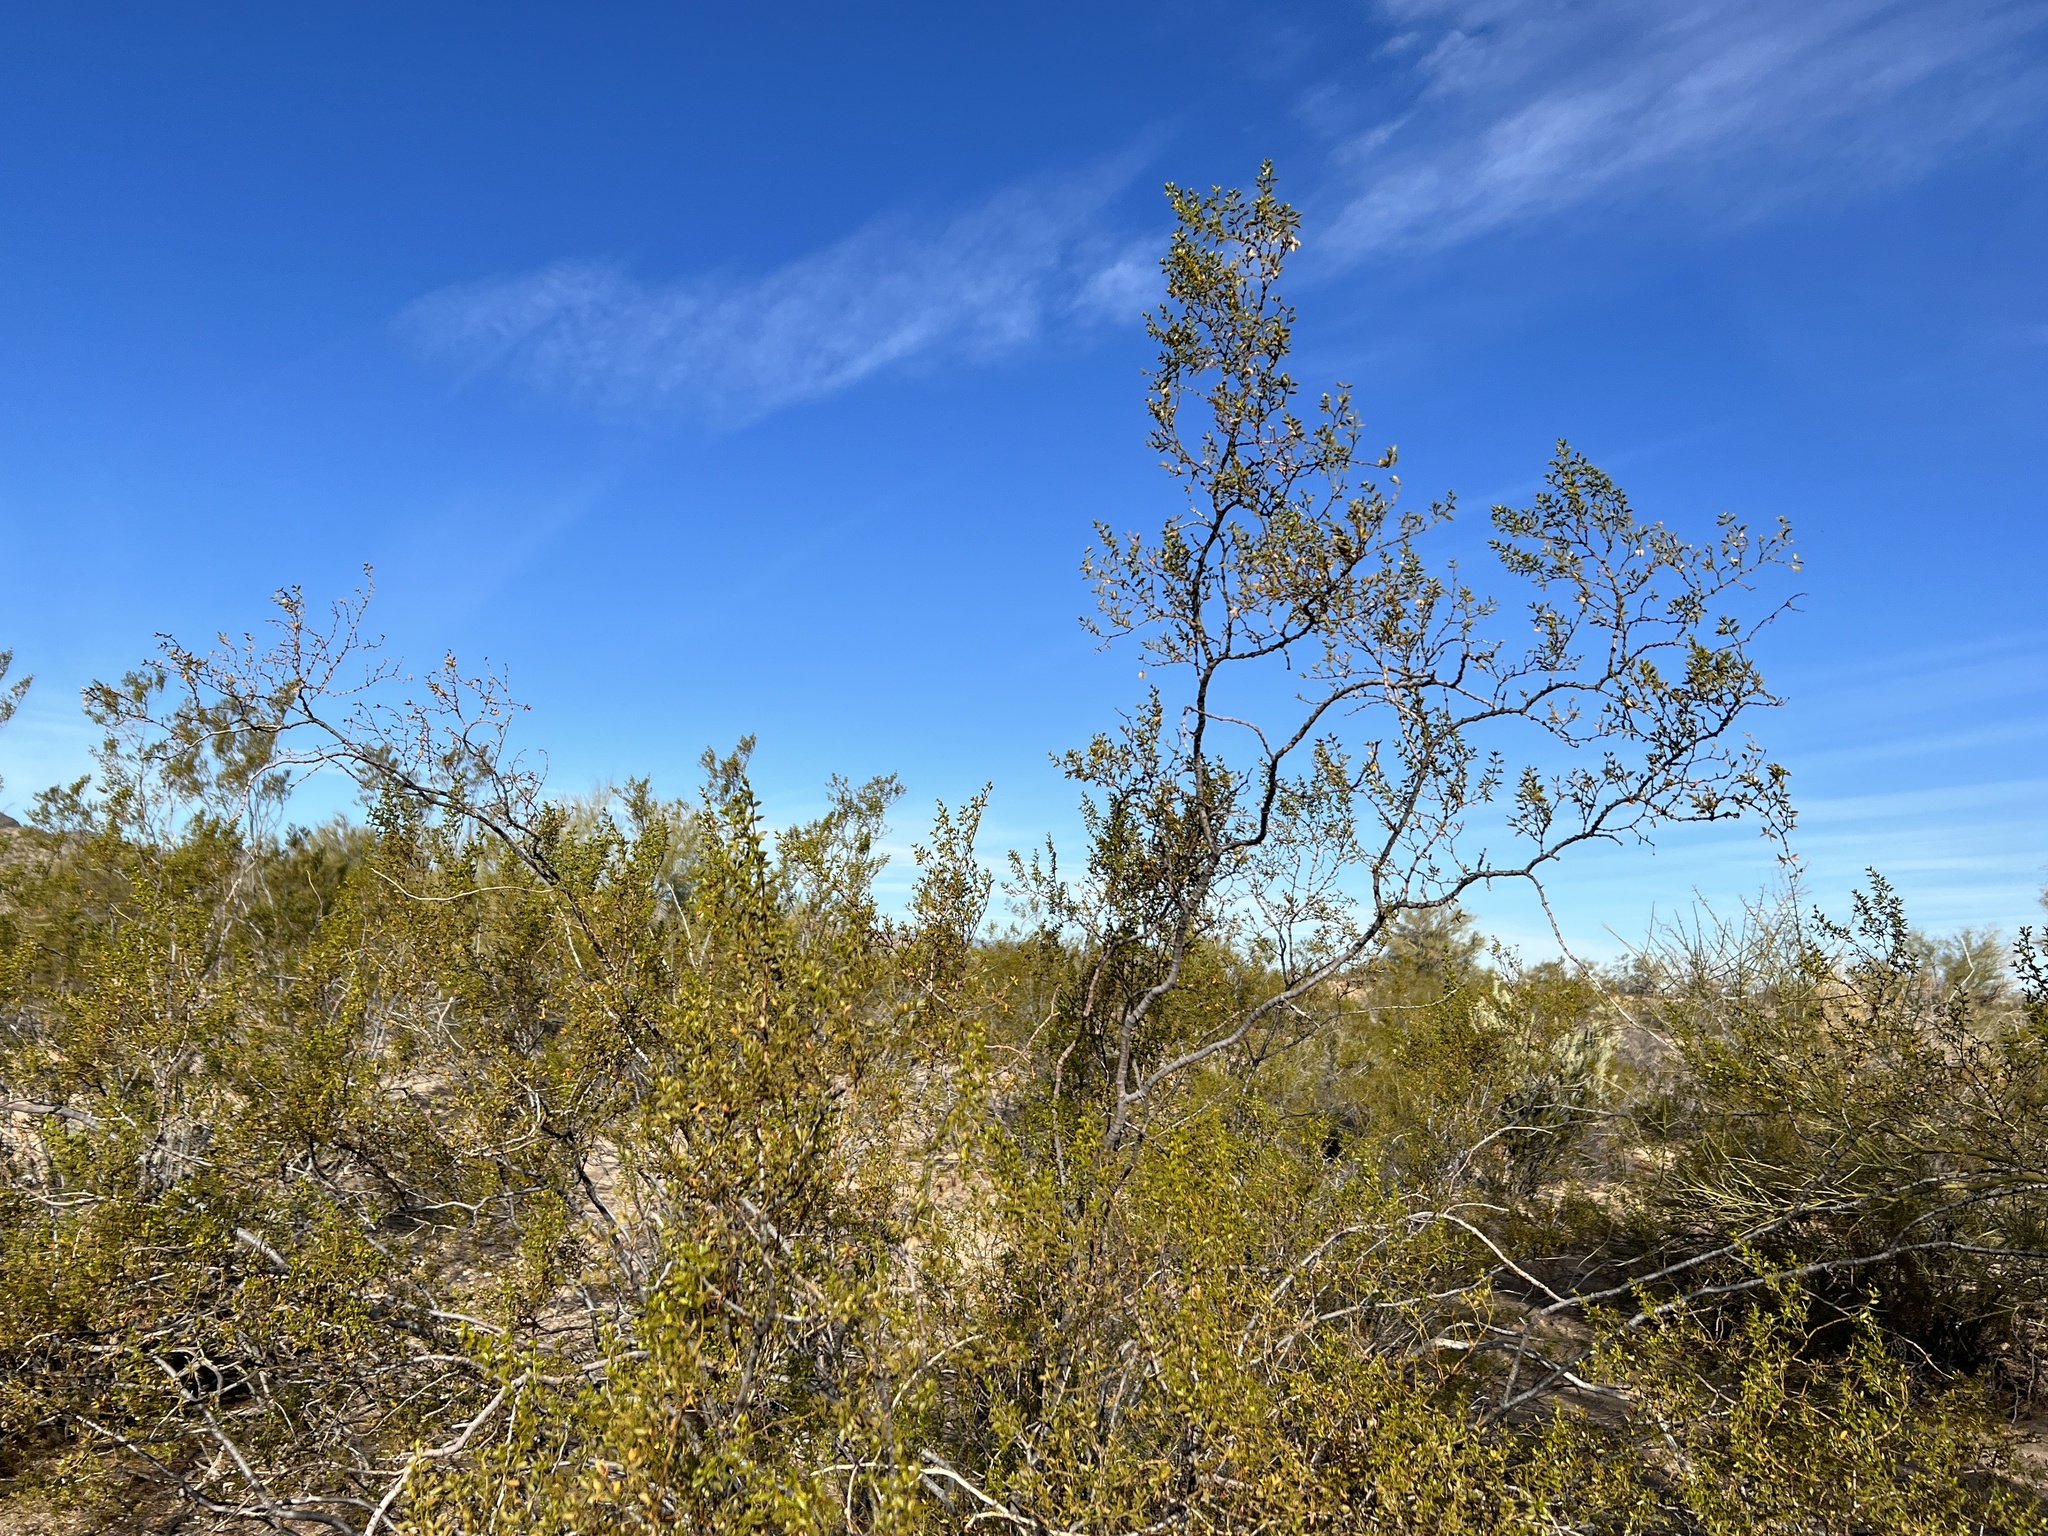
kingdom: Plantae
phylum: Tracheophyta
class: Magnoliopsida
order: Zygophyllales
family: Zygophyllaceae
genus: Larrea
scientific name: Larrea tridentata
